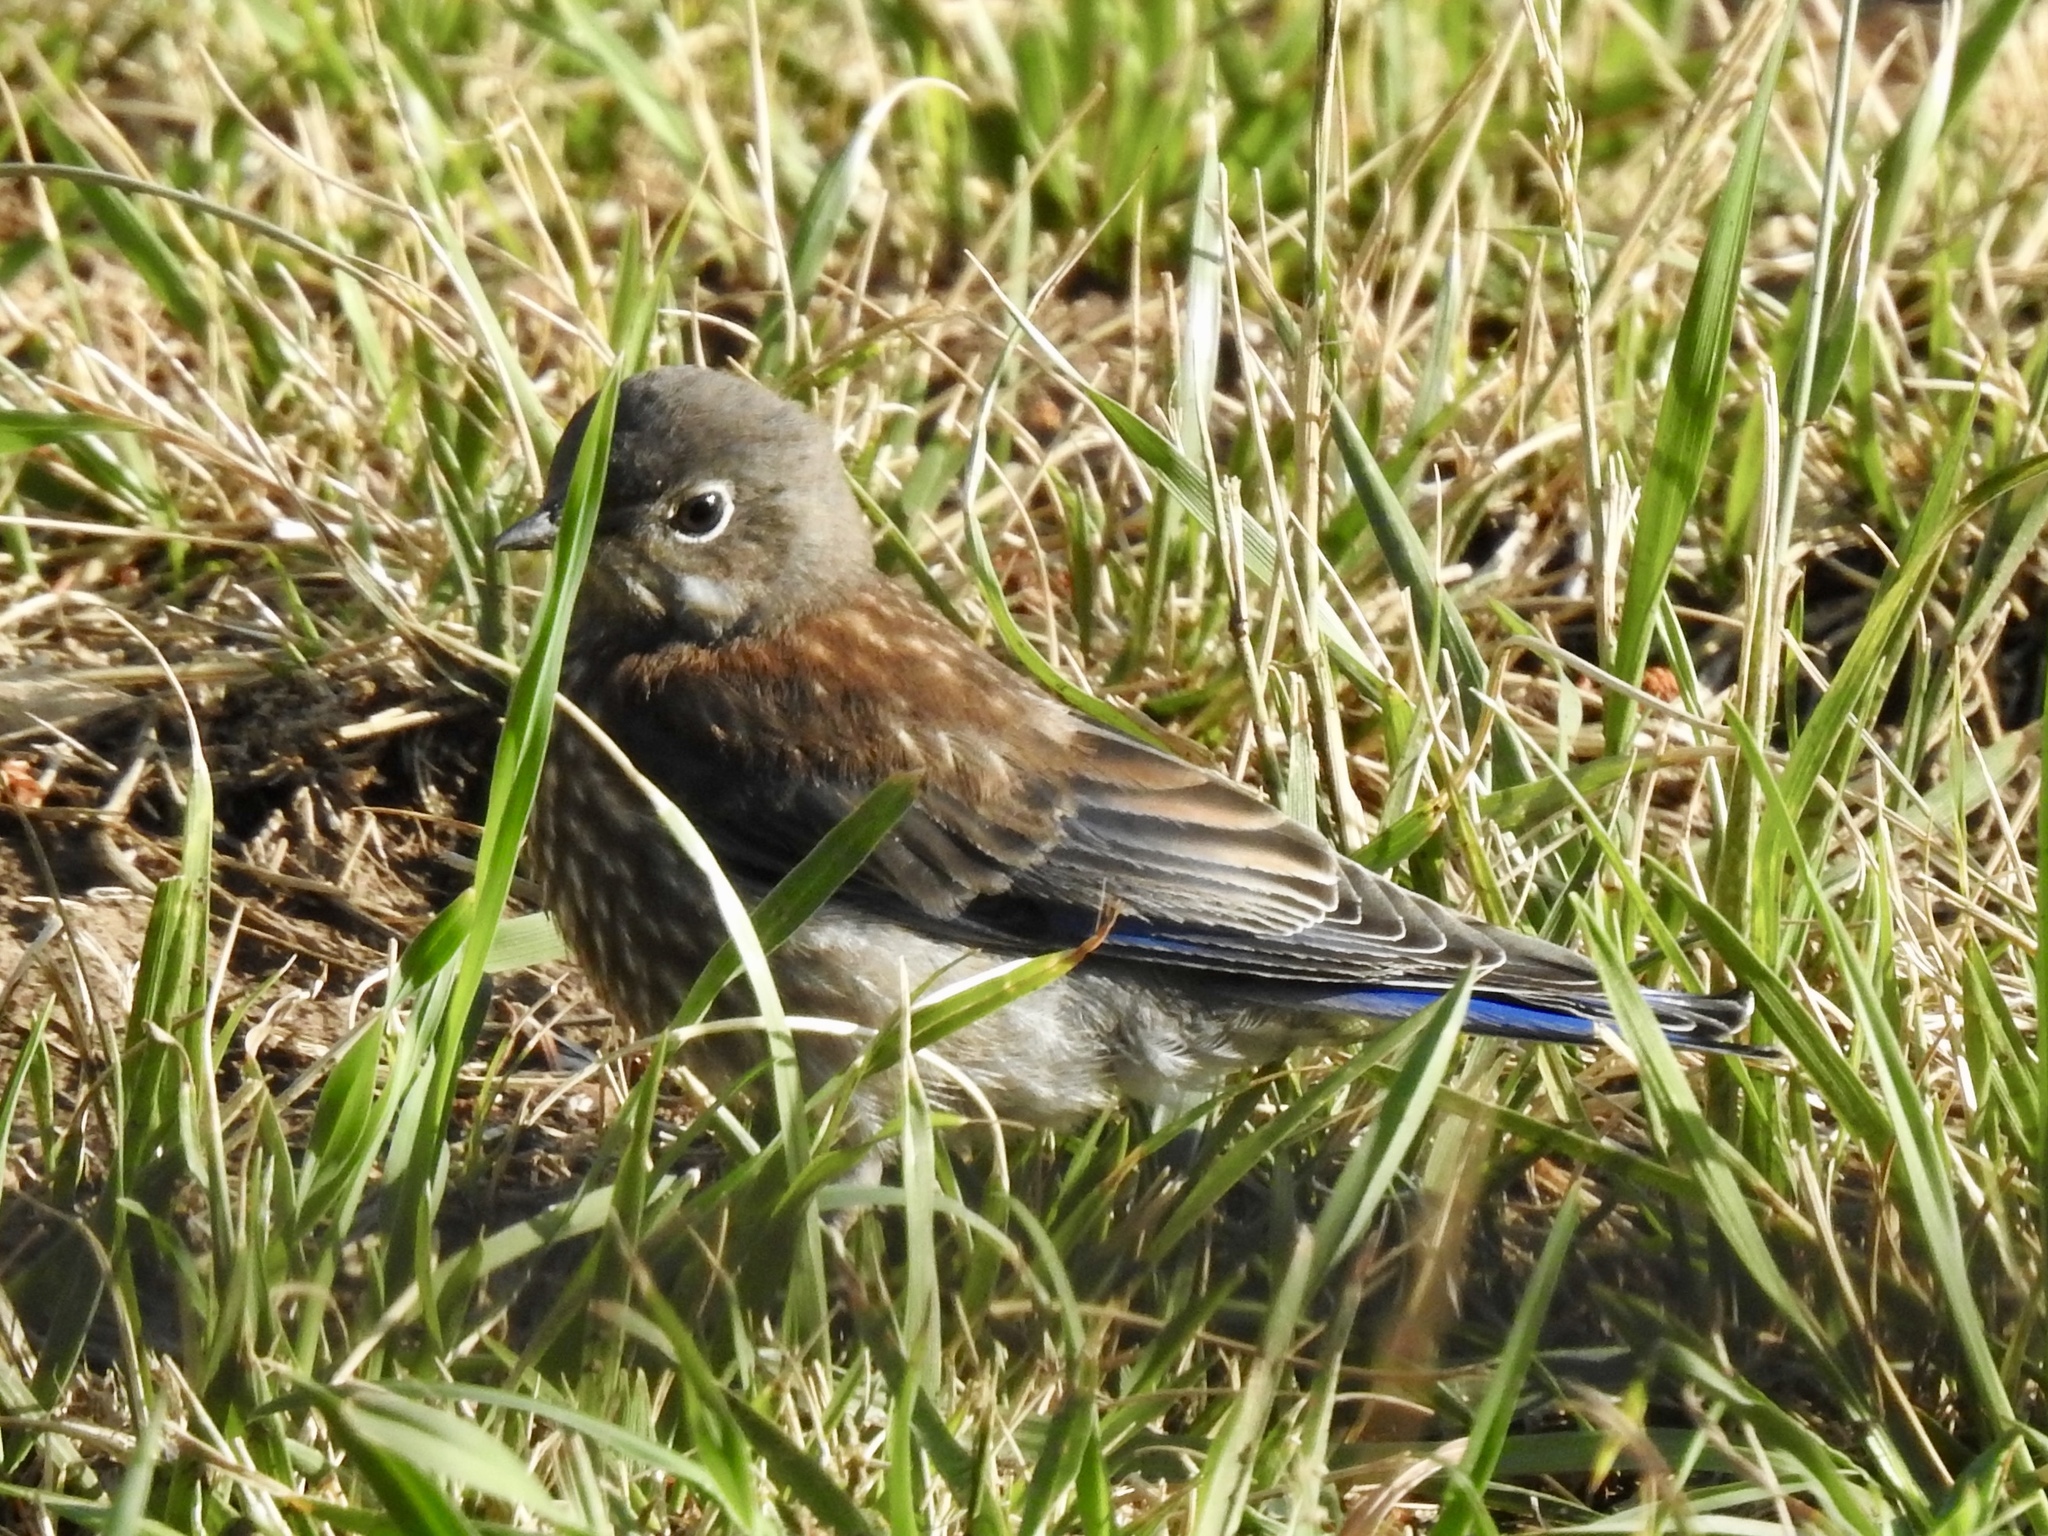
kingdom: Animalia
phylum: Chordata
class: Aves
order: Passeriformes
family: Turdidae
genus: Sialia
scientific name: Sialia mexicana
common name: Western bluebird
